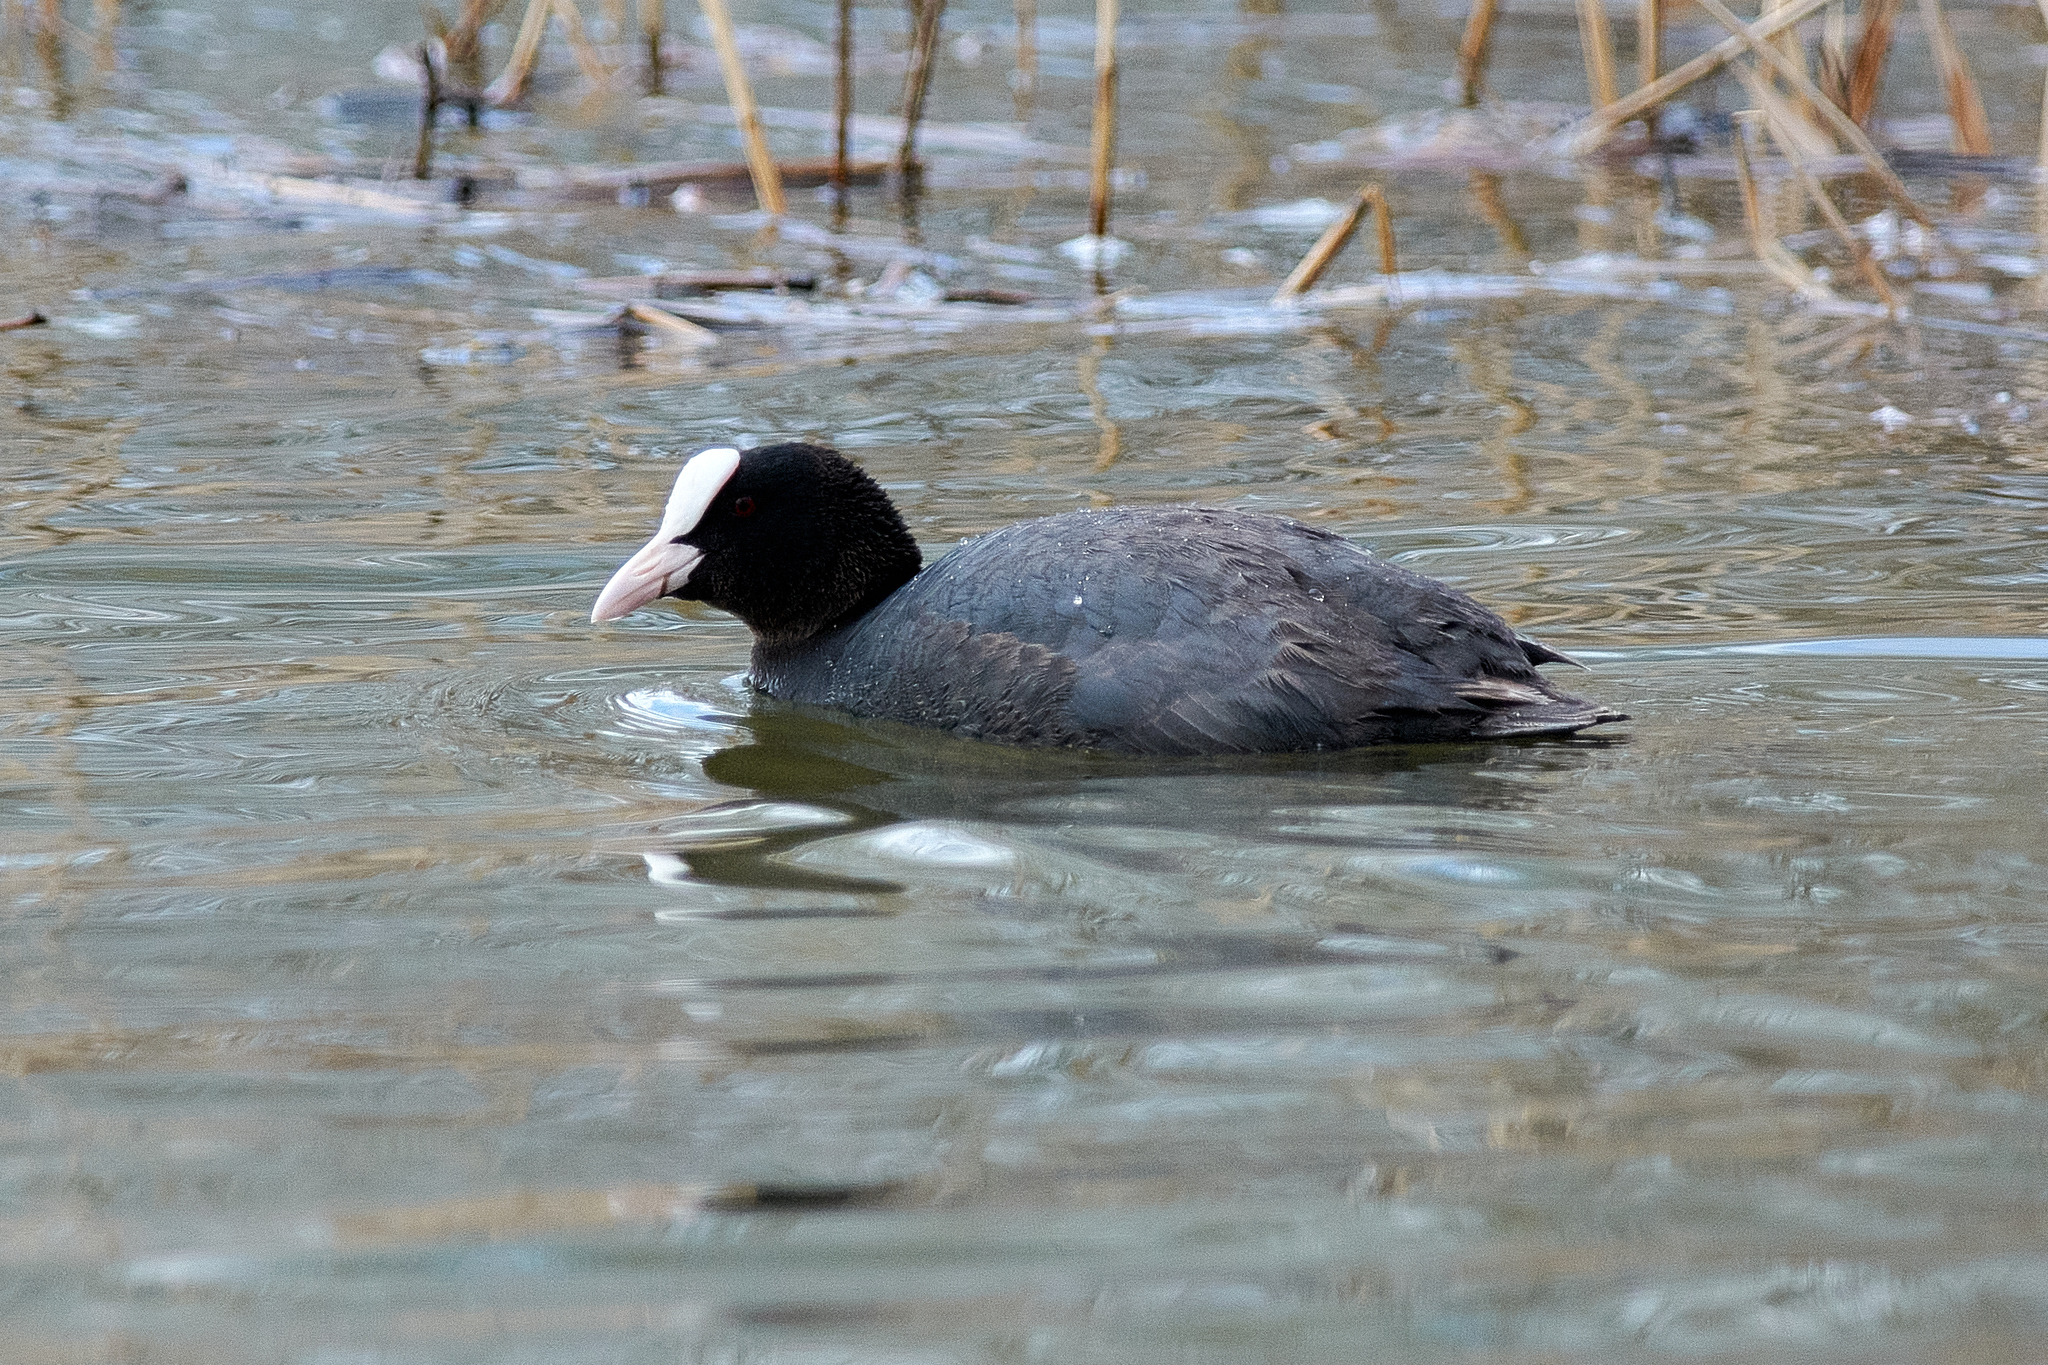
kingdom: Animalia
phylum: Chordata
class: Aves
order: Gruiformes
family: Rallidae
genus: Fulica
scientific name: Fulica atra
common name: Eurasian coot
